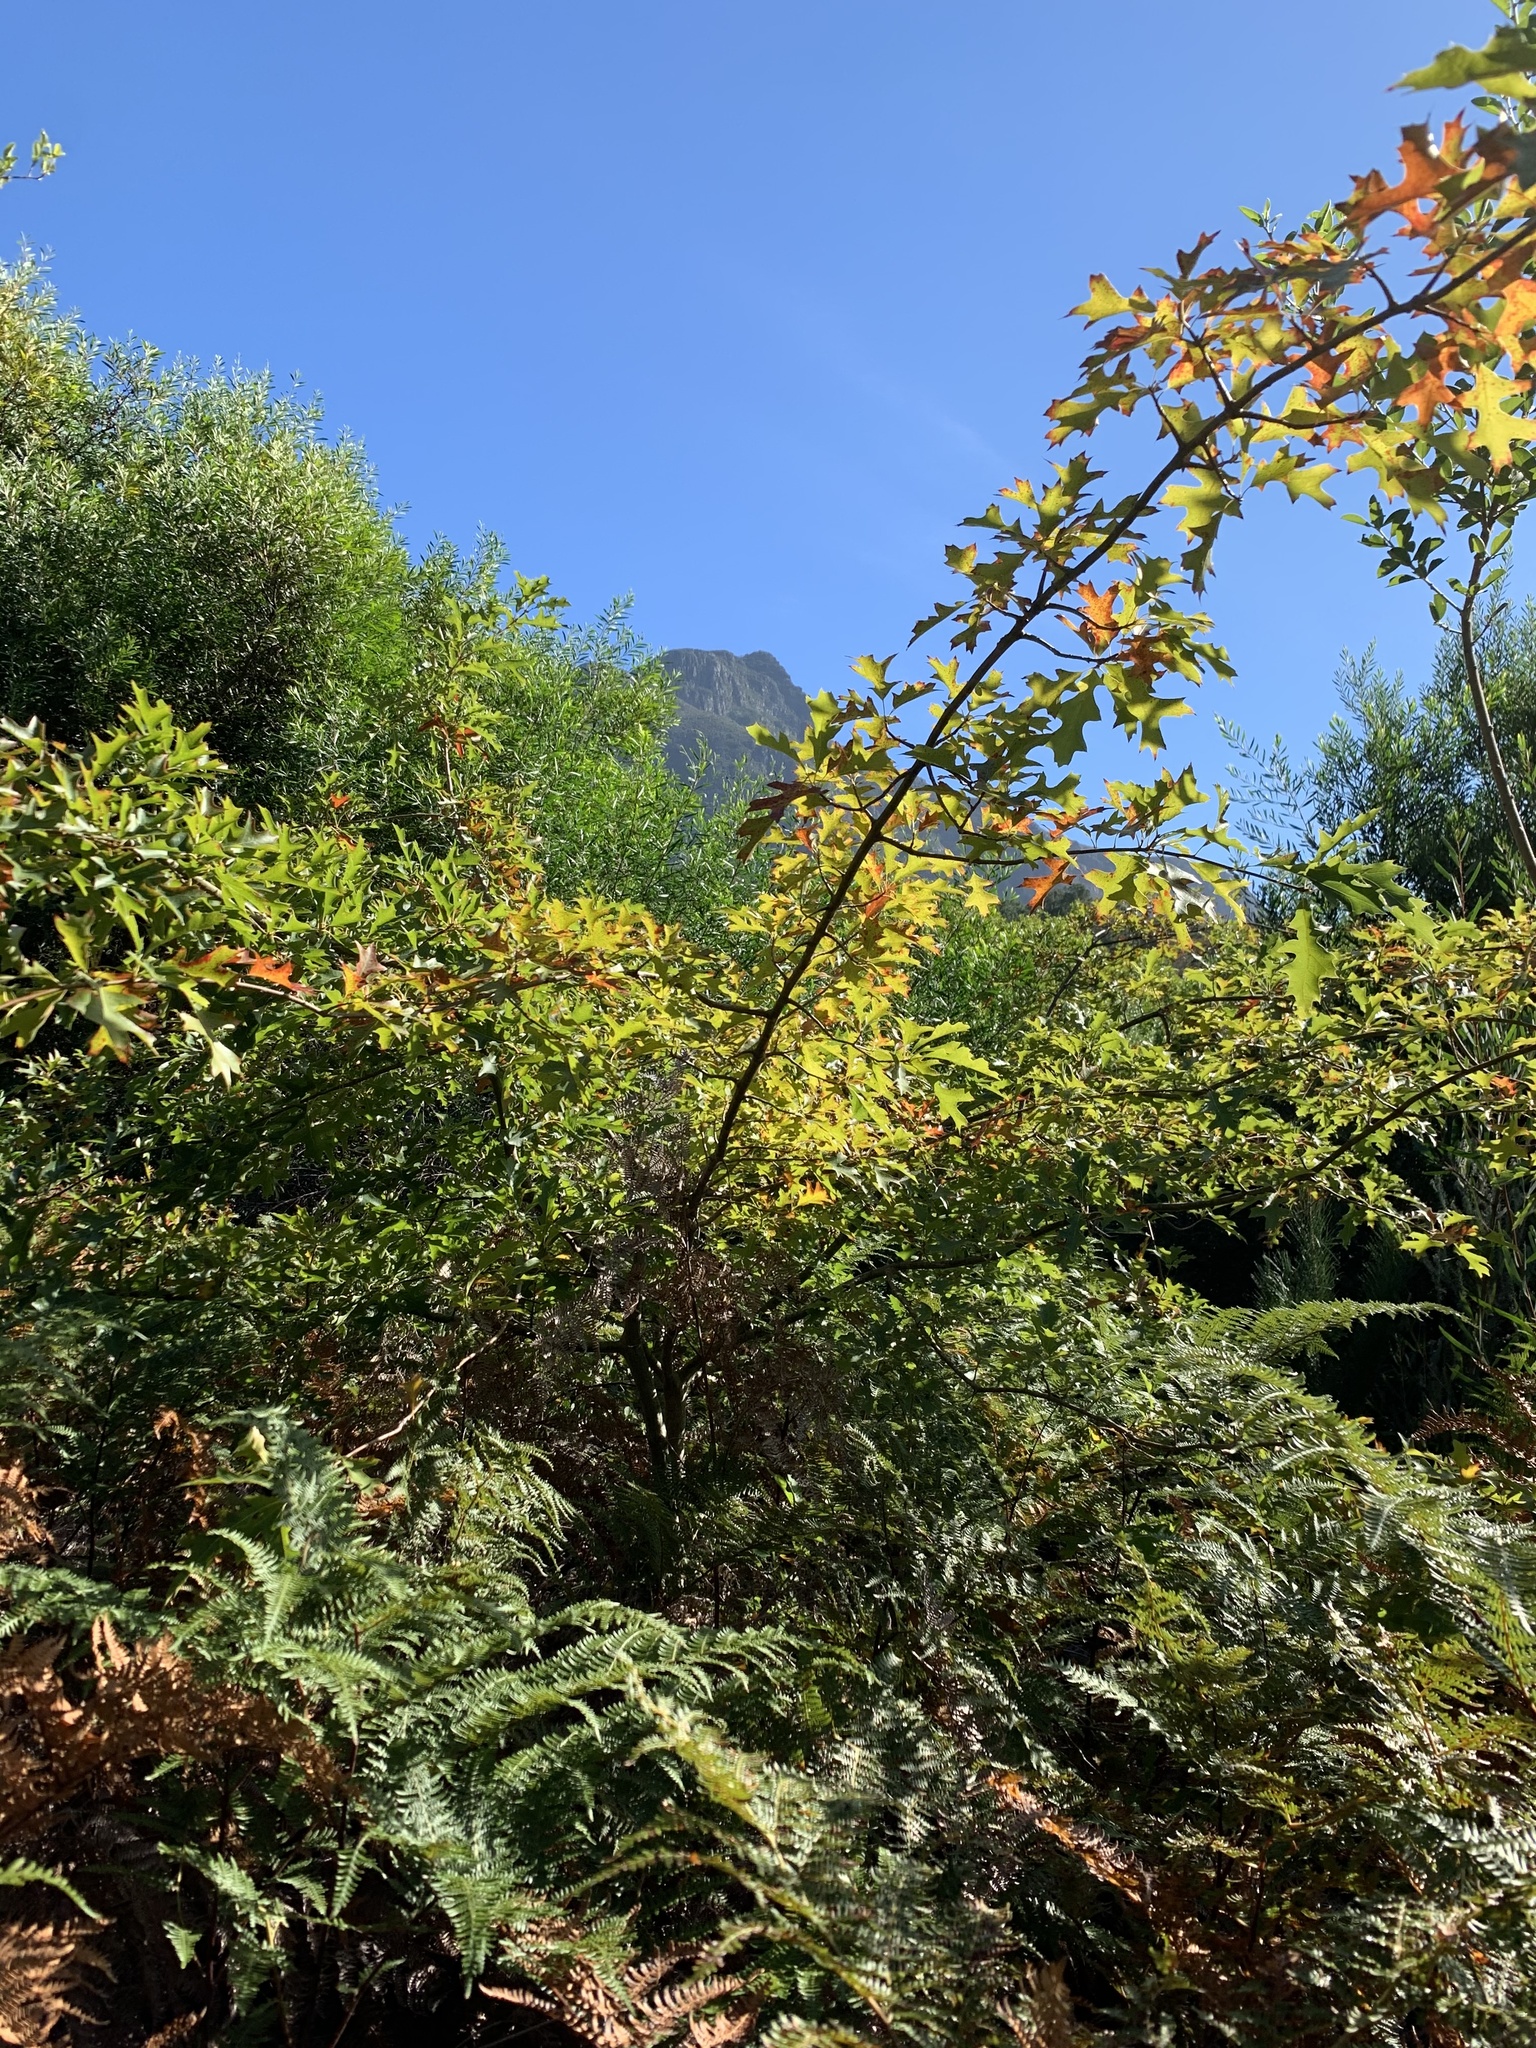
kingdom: Plantae
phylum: Tracheophyta
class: Magnoliopsida
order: Fagales
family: Fagaceae
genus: Quercus
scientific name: Quercus palustris
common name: Pin oak
